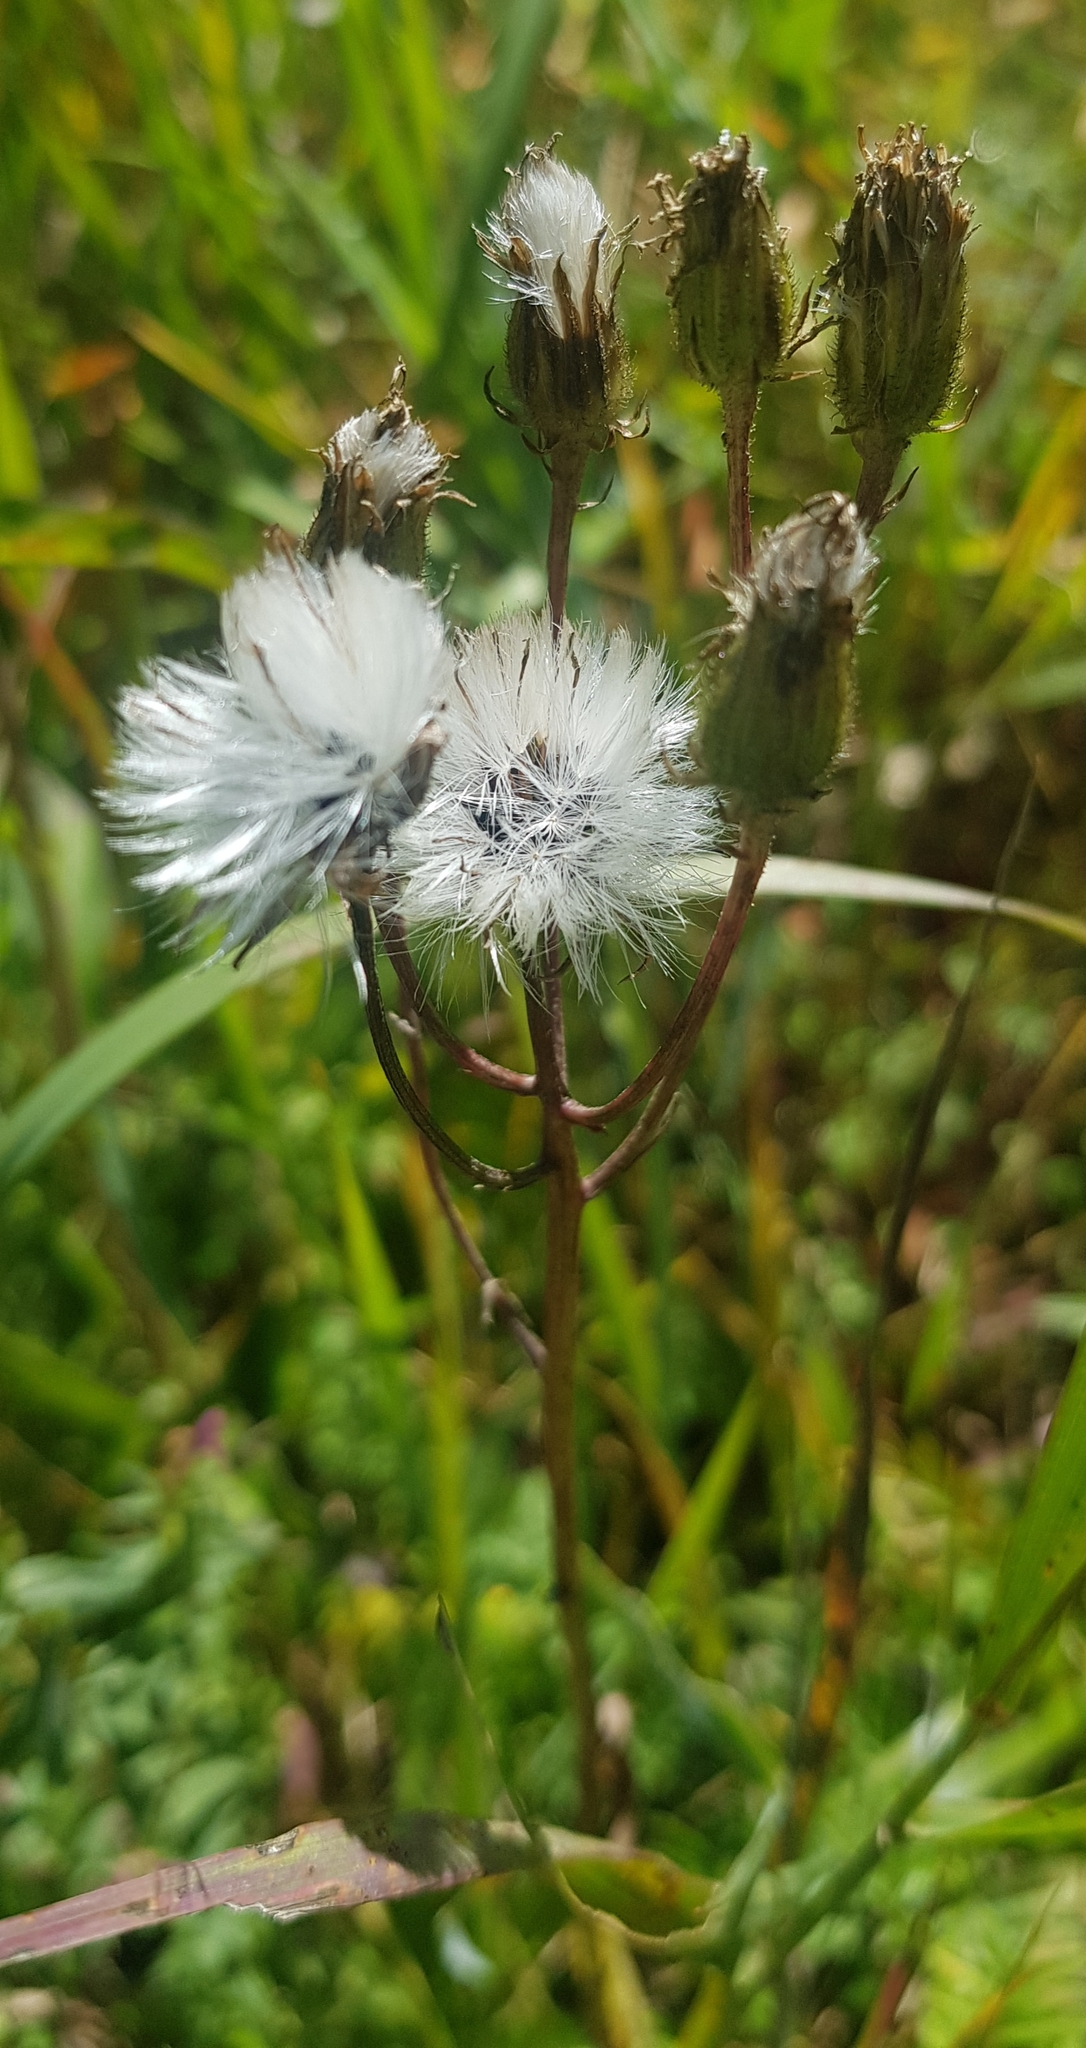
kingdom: Plantae
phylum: Tracheophyta
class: Magnoliopsida
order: Asterales
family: Asteraceae
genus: Erigeron
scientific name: Erigeron acris
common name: Blue fleabane
